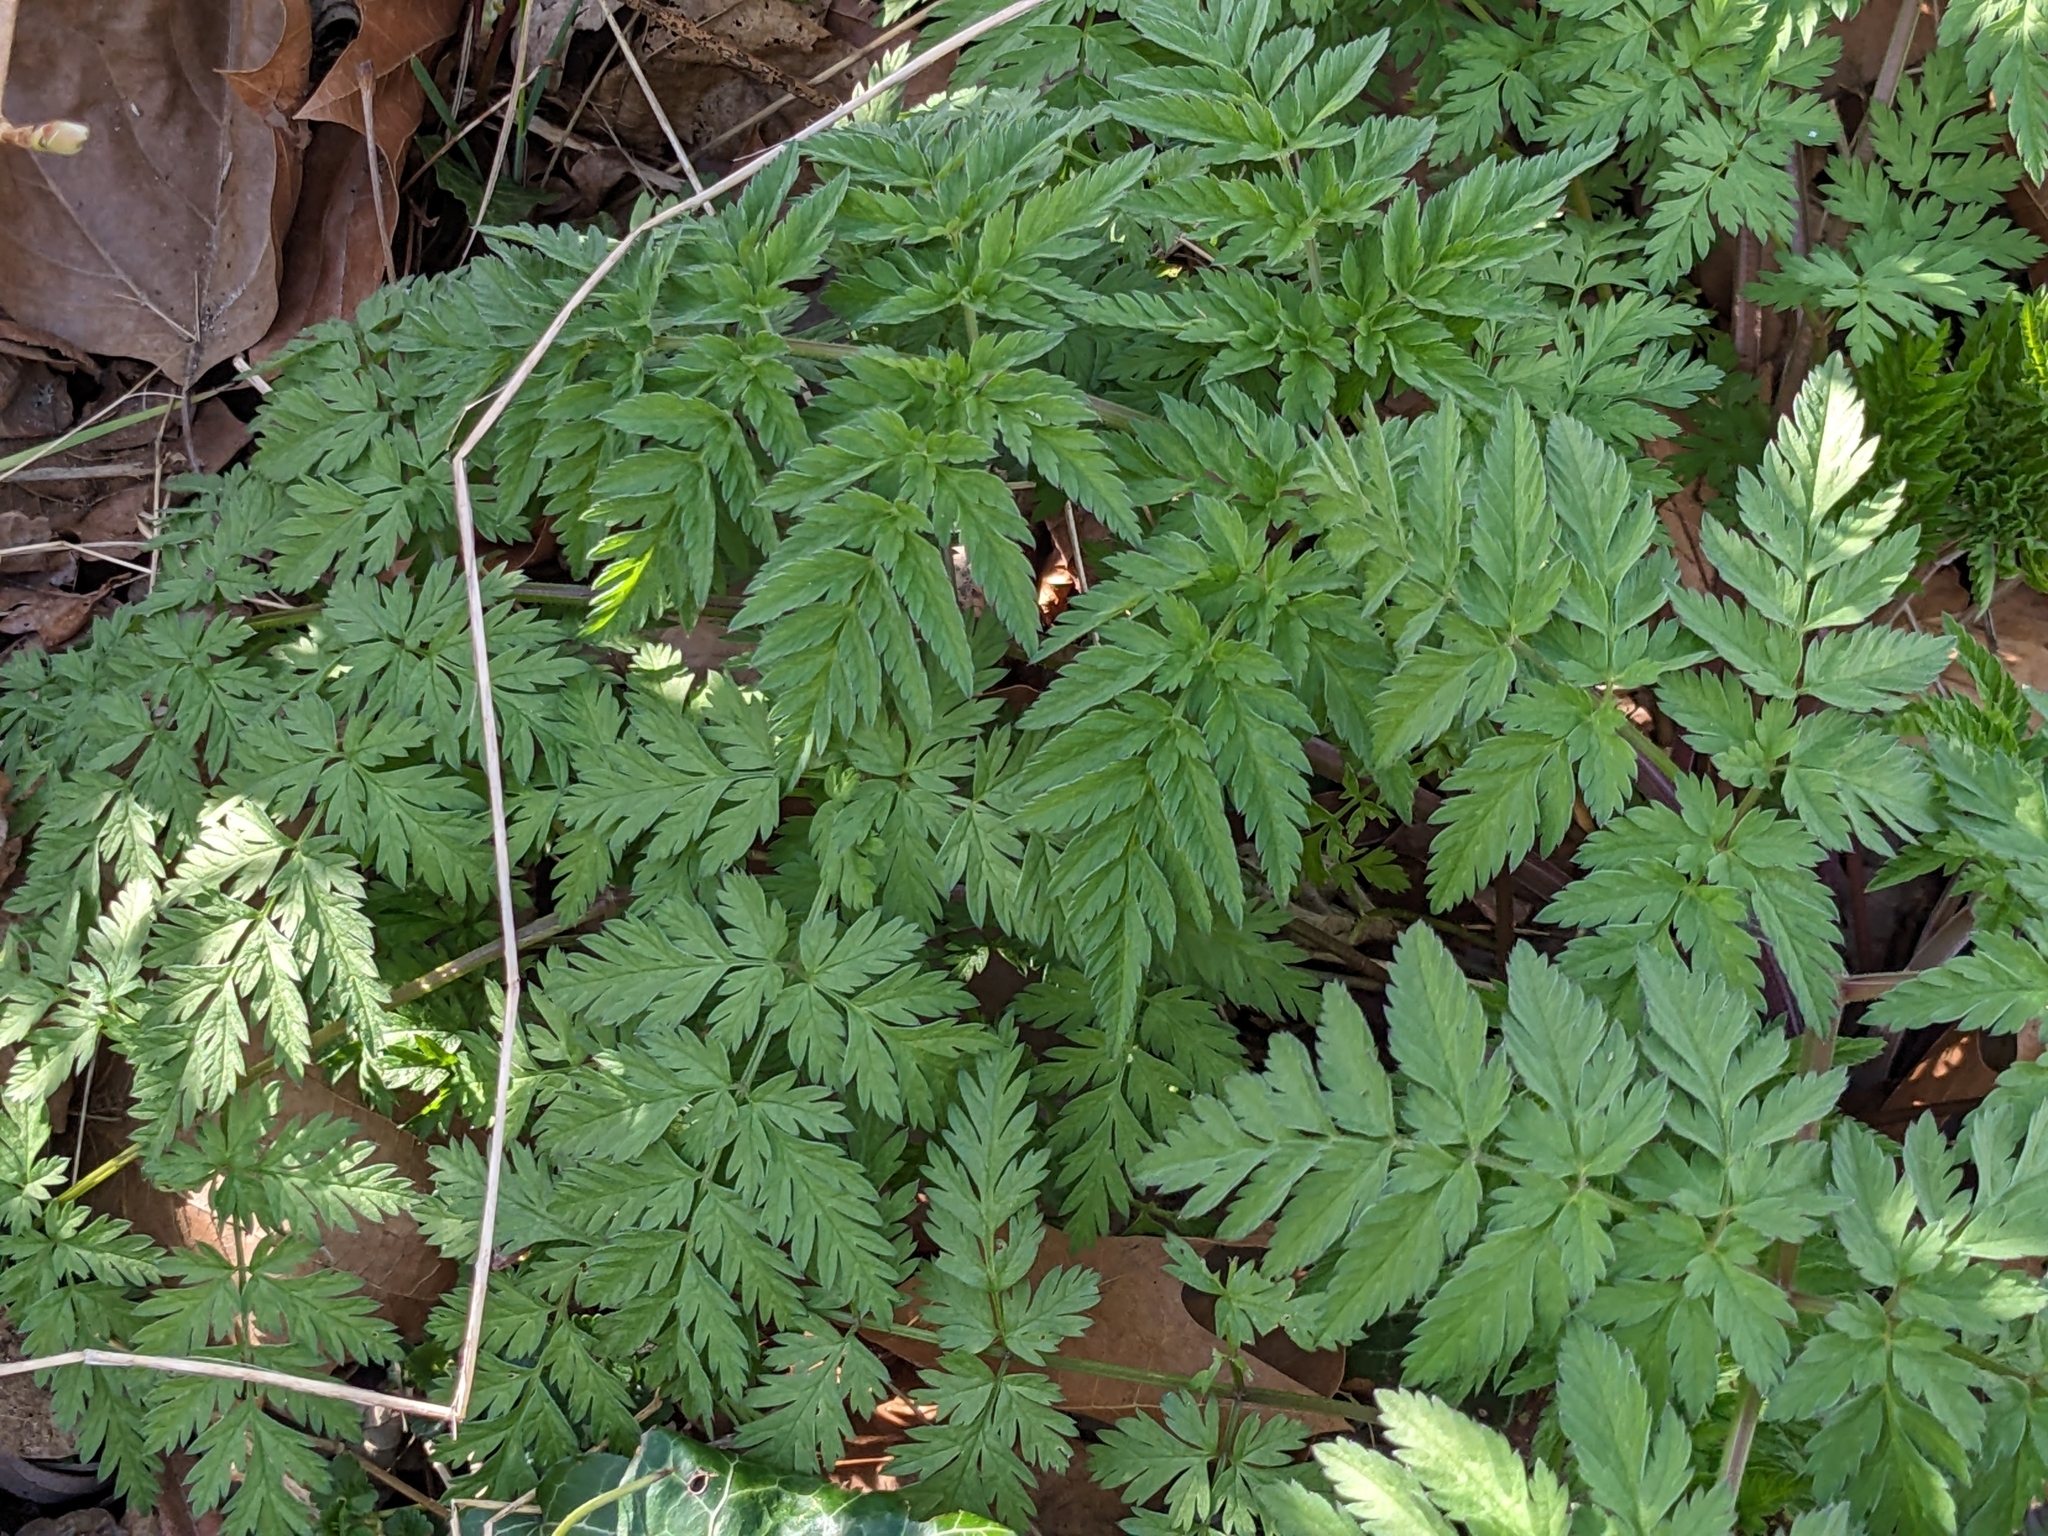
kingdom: Plantae
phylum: Tracheophyta
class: Magnoliopsida
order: Apiales
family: Apiaceae
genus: Anthriscus
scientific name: Anthriscus sylvestris
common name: Cow parsley
